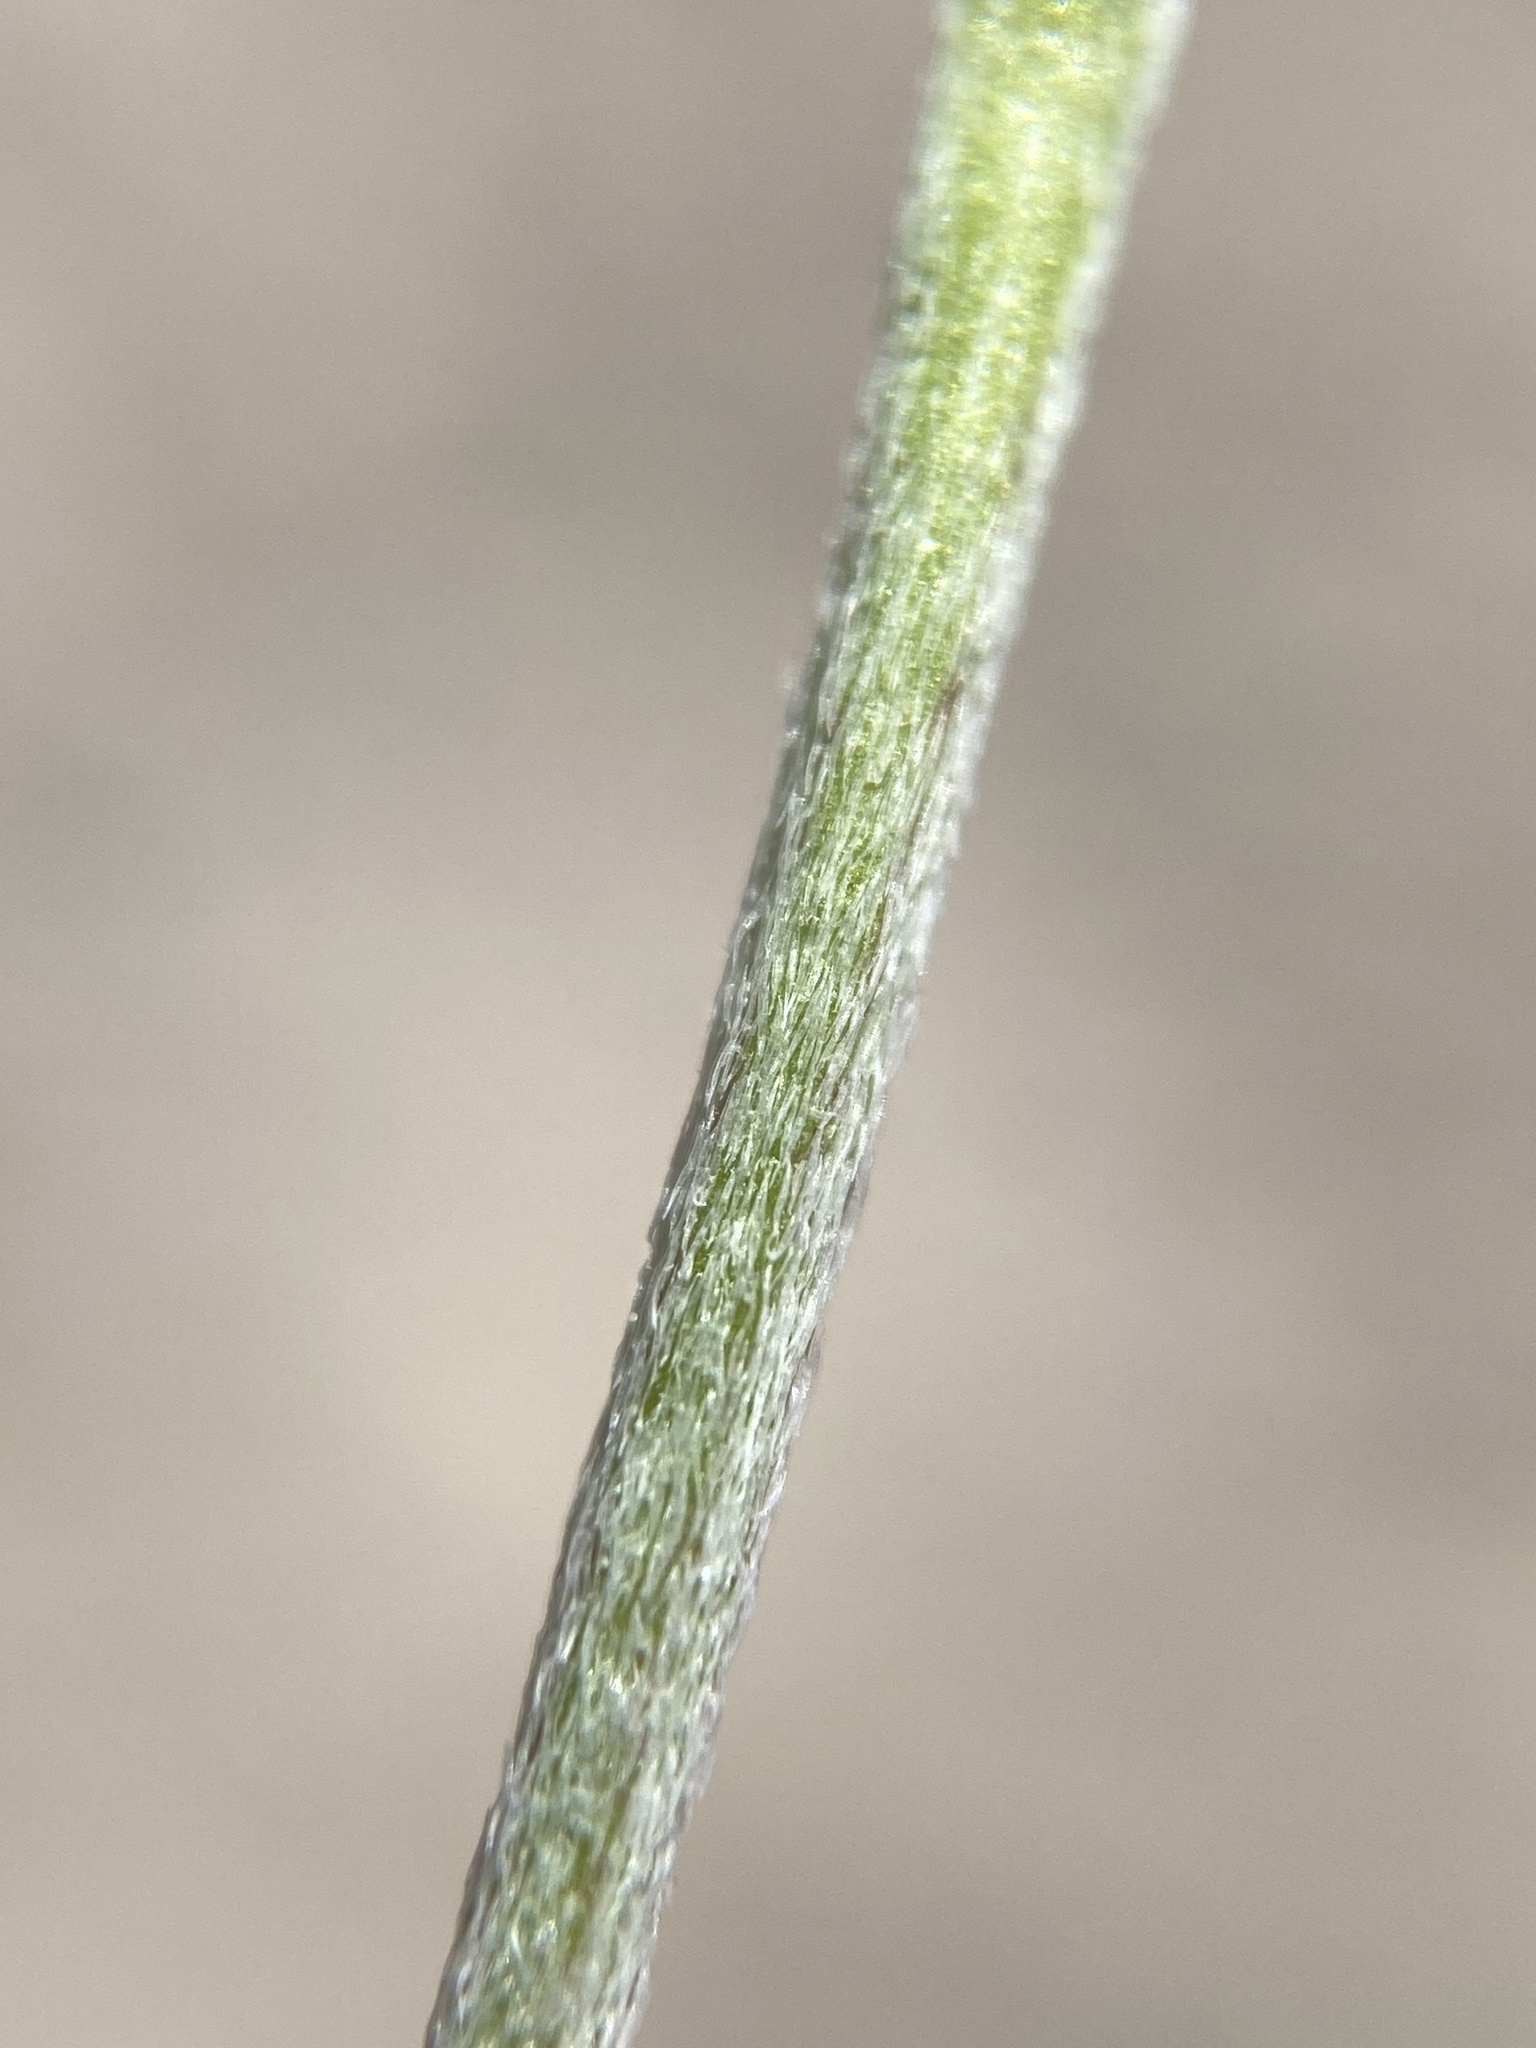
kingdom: Plantae
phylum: Tracheophyta
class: Magnoliopsida
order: Fabales
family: Fabaceae
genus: Astragalus
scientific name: Astragalus calycosus
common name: King's milkvetch
